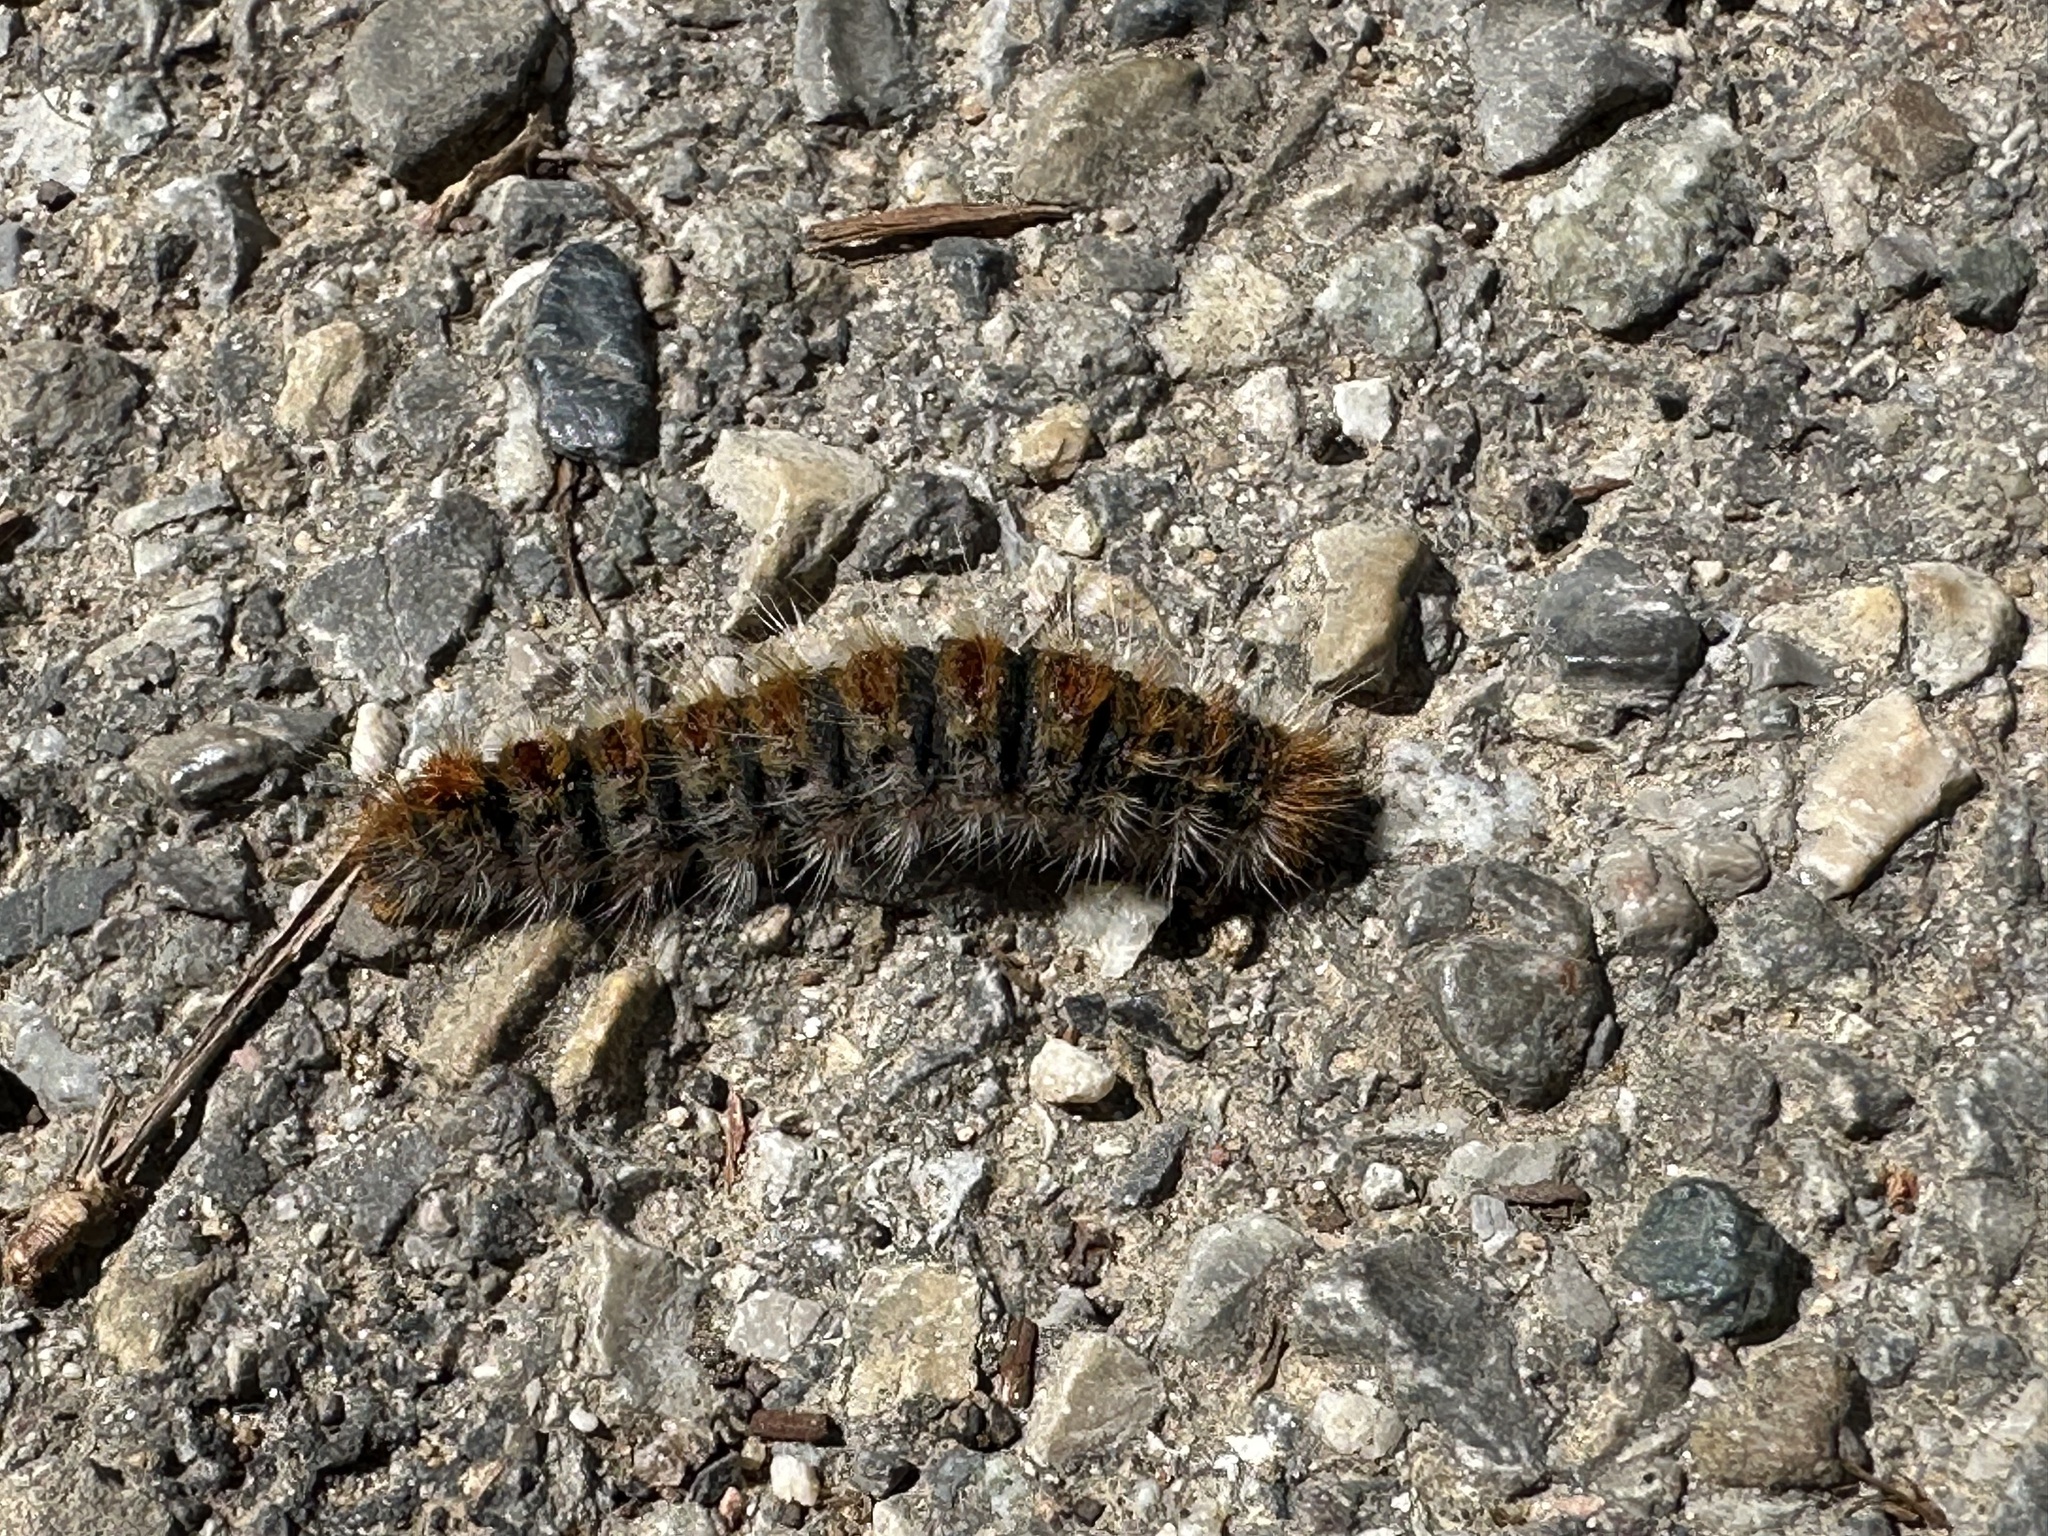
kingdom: Animalia
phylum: Arthropoda
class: Insecta
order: Lepidoptera
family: Notodontidae
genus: Thaumetopoea
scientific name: Thaumetopoea pityocampa
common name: Pine processionary
